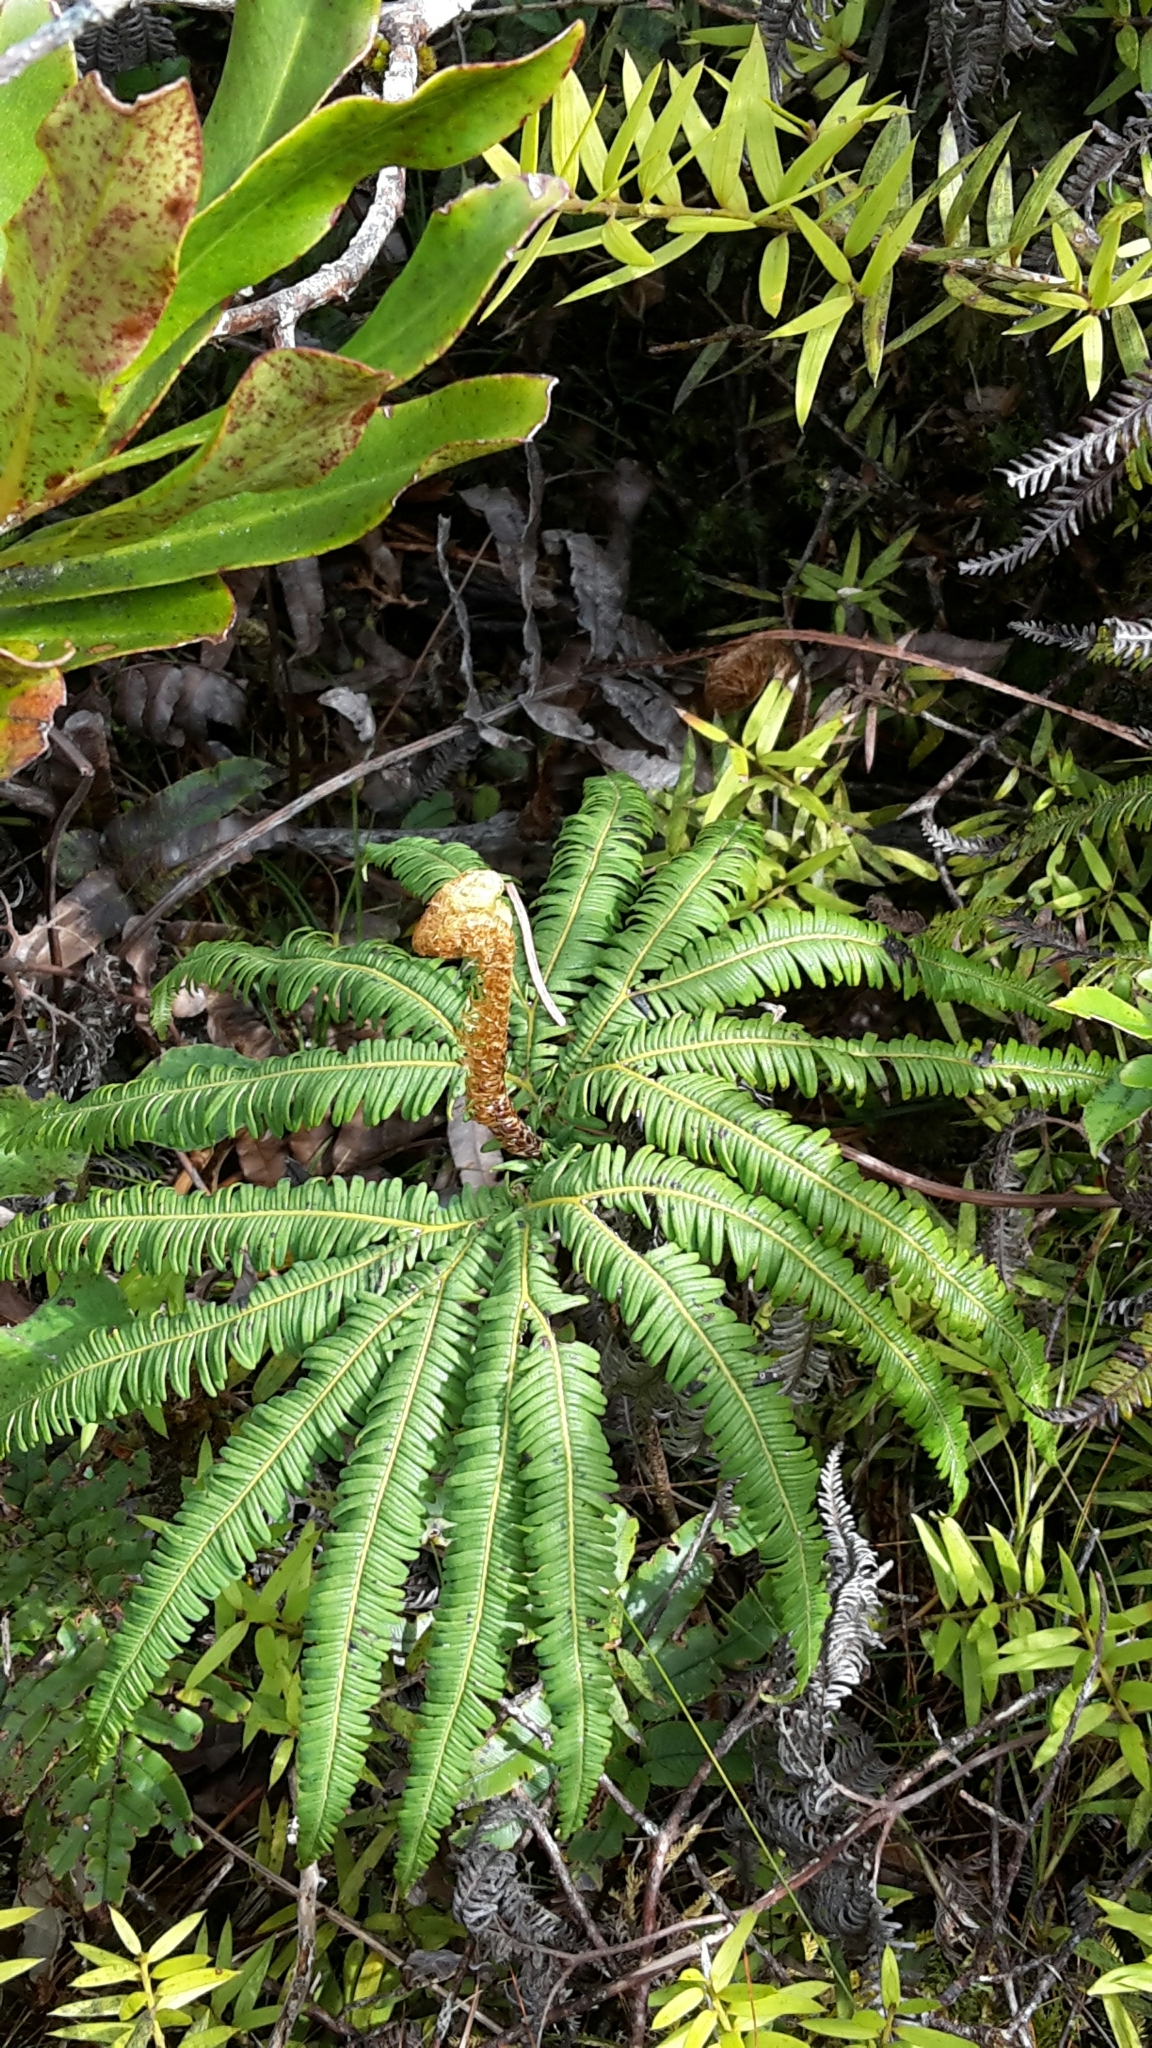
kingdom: Plantae
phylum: Tracheophyta
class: Polypodiopsida
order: Gleicheniales
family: Gleicheniaceae
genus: Sticherus
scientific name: Sticherus cunninghamii
